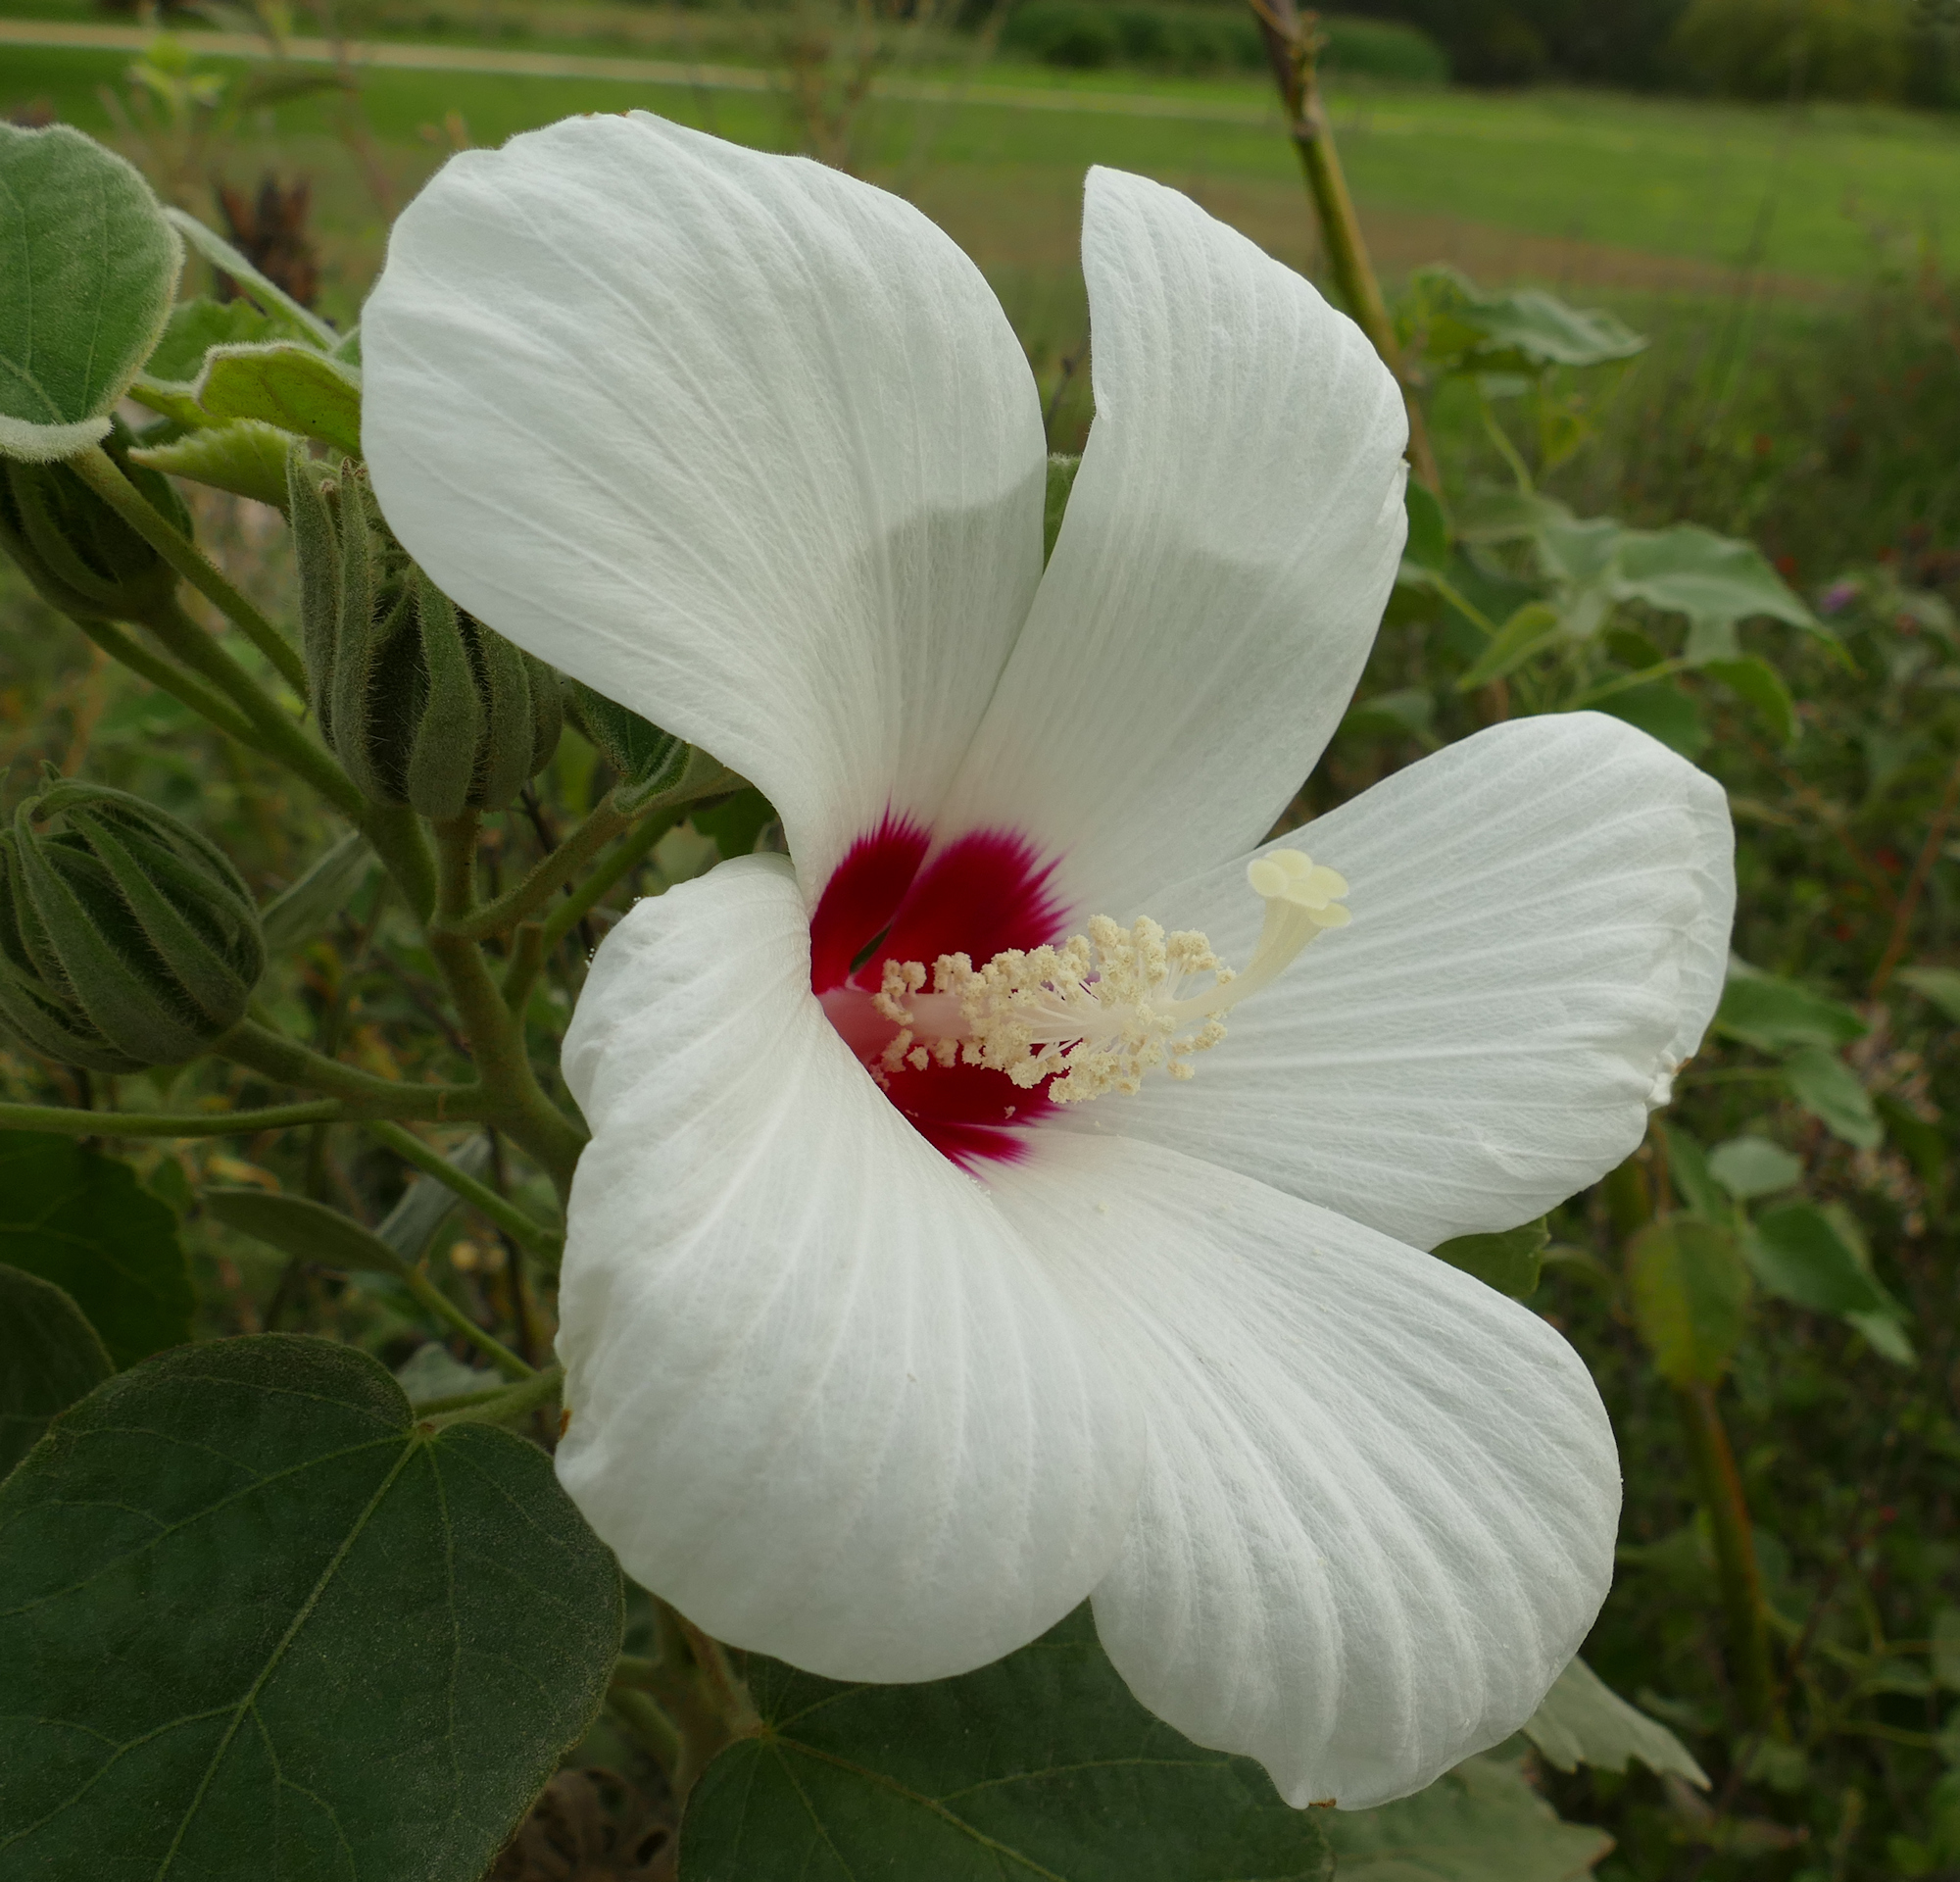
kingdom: Plantae
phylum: Tracheophyta
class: Magnoliopsida
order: Malvales
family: Malvaceae
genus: Hibiscus
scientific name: Hibiscus moscheutos
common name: Common rose-mallow
